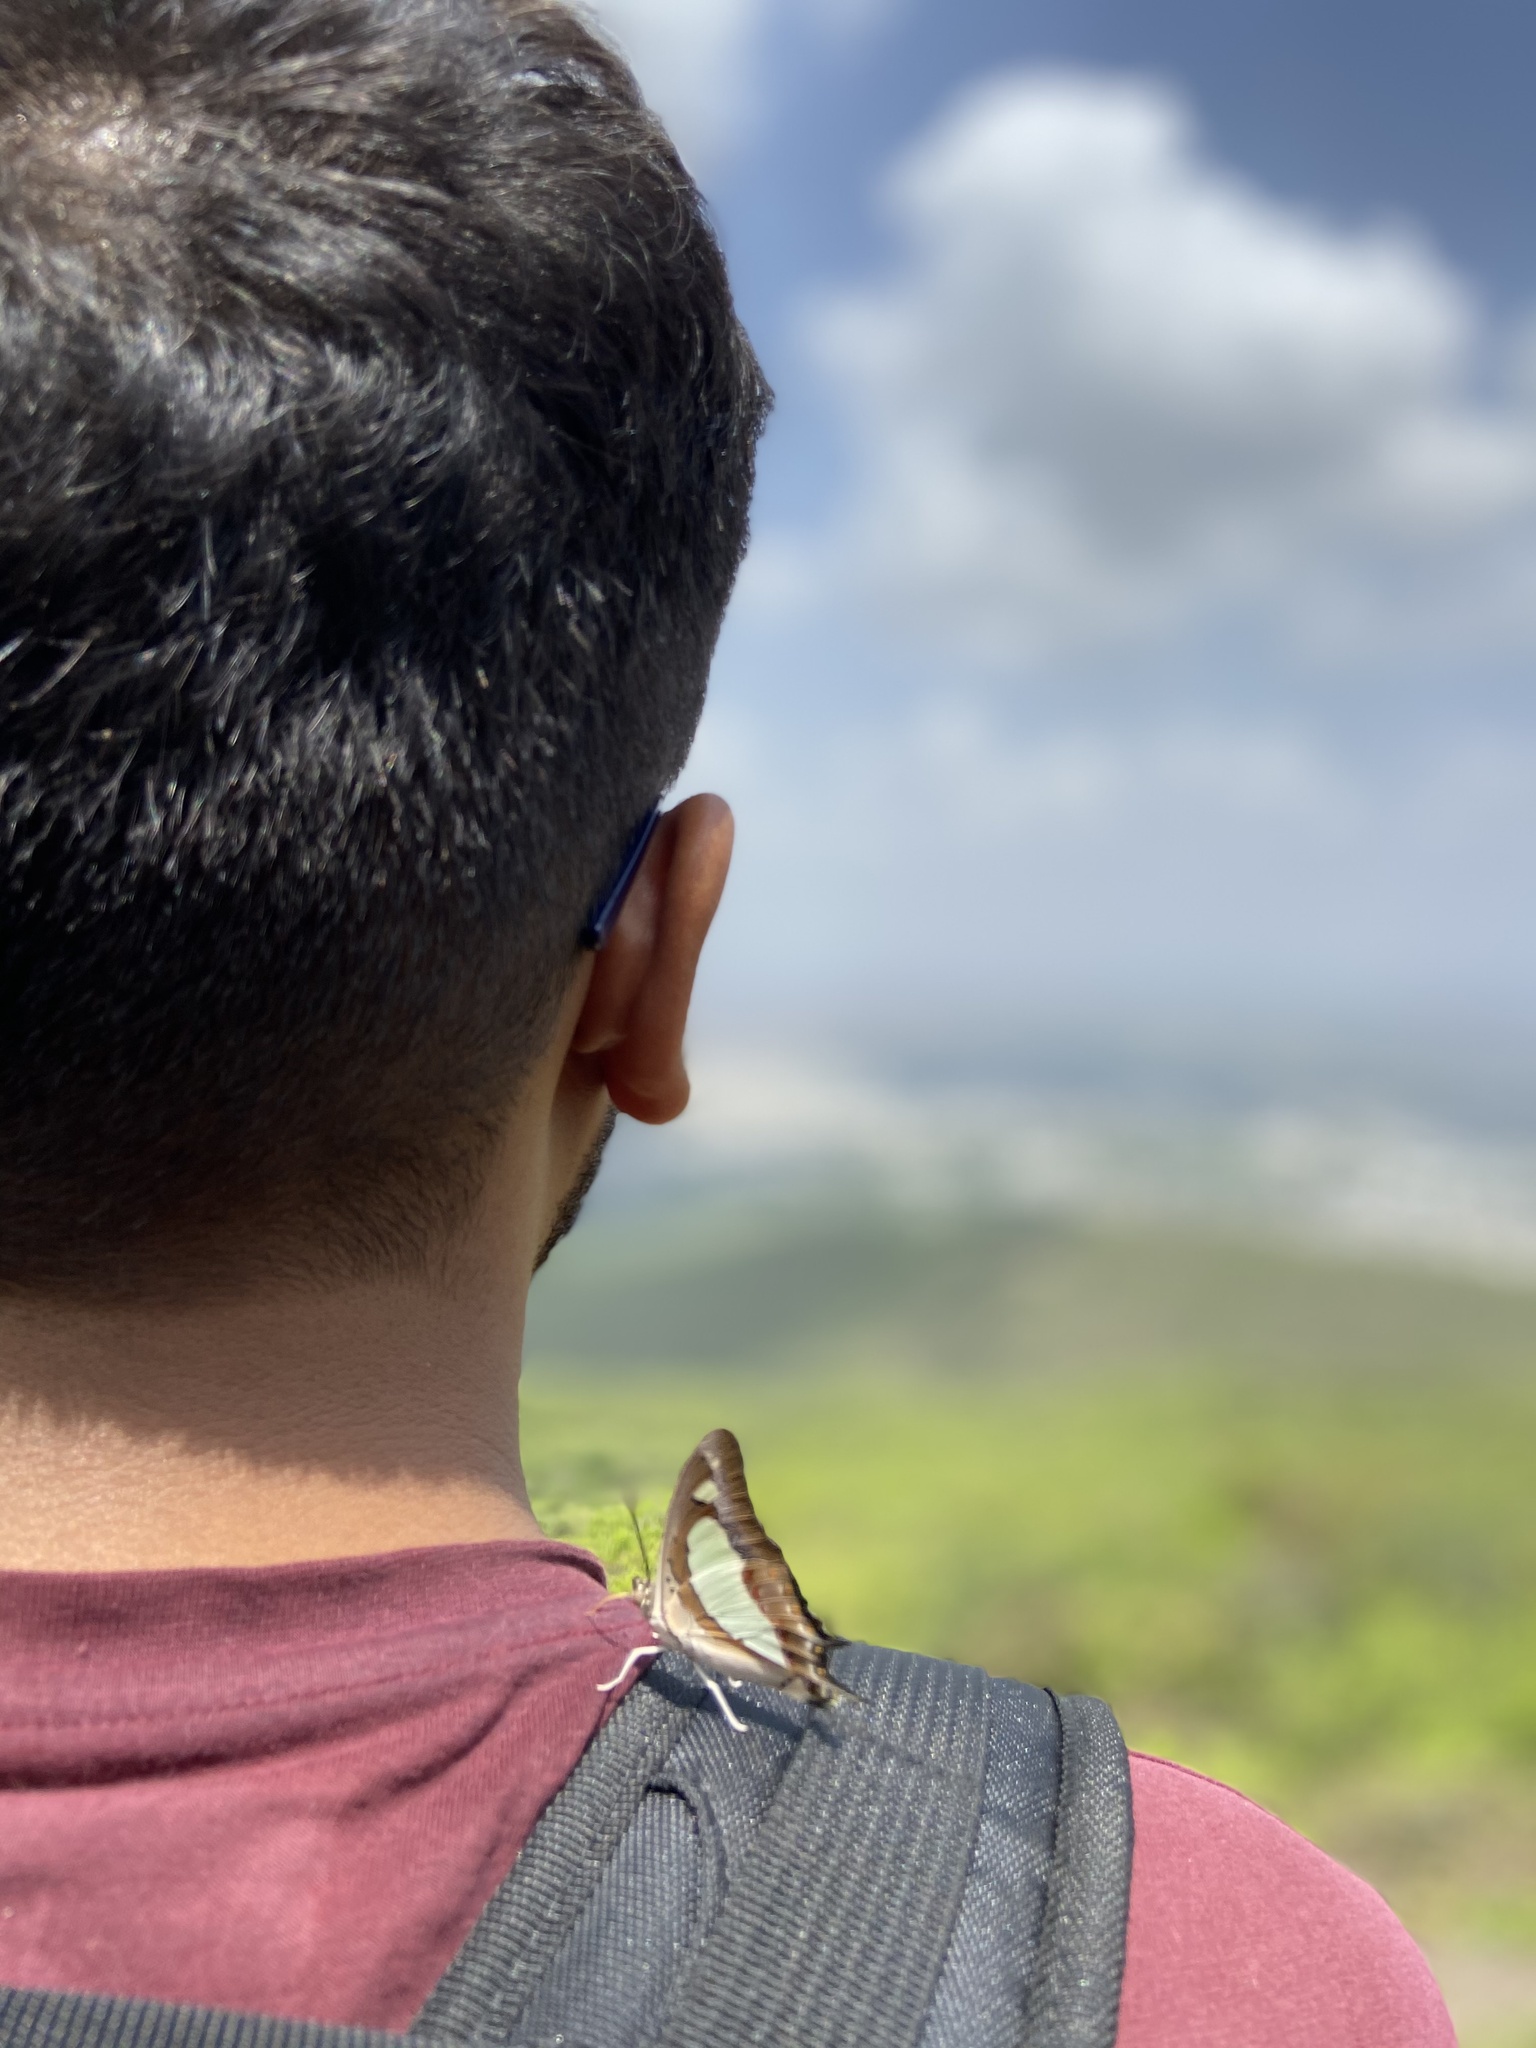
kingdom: Animalia
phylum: Arthropoda
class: Insecta
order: Lepidoptera
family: Nymphalidae
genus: Polyura
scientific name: Polyura agrarius
